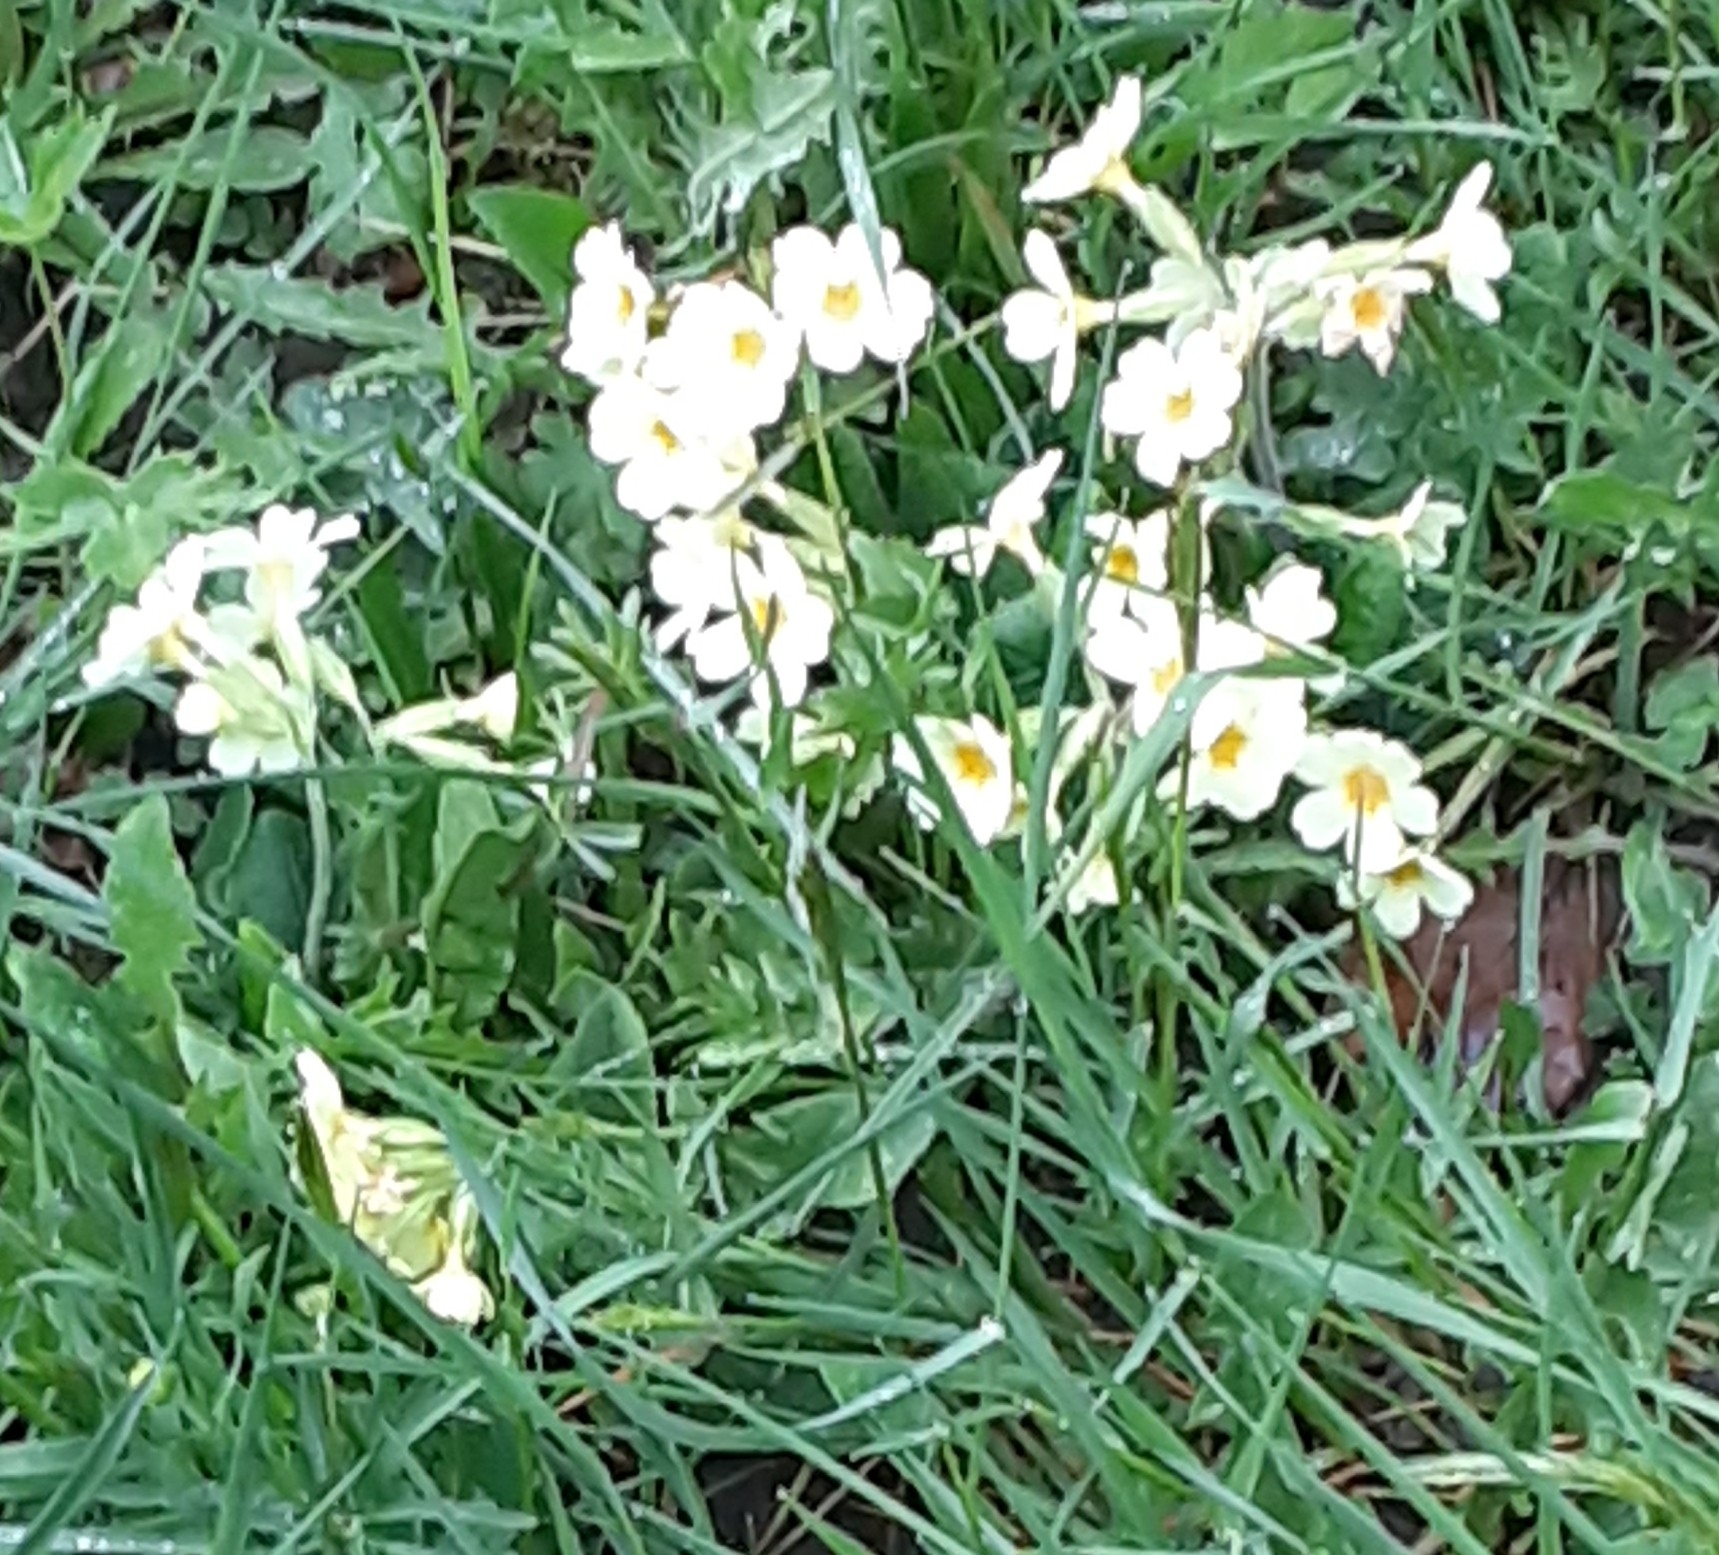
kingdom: Plantae
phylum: Tracheophyta
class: Magnoliopsida
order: Ericales
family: Primulaceae
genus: Primula
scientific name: Primula elatior
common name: Oxlip
